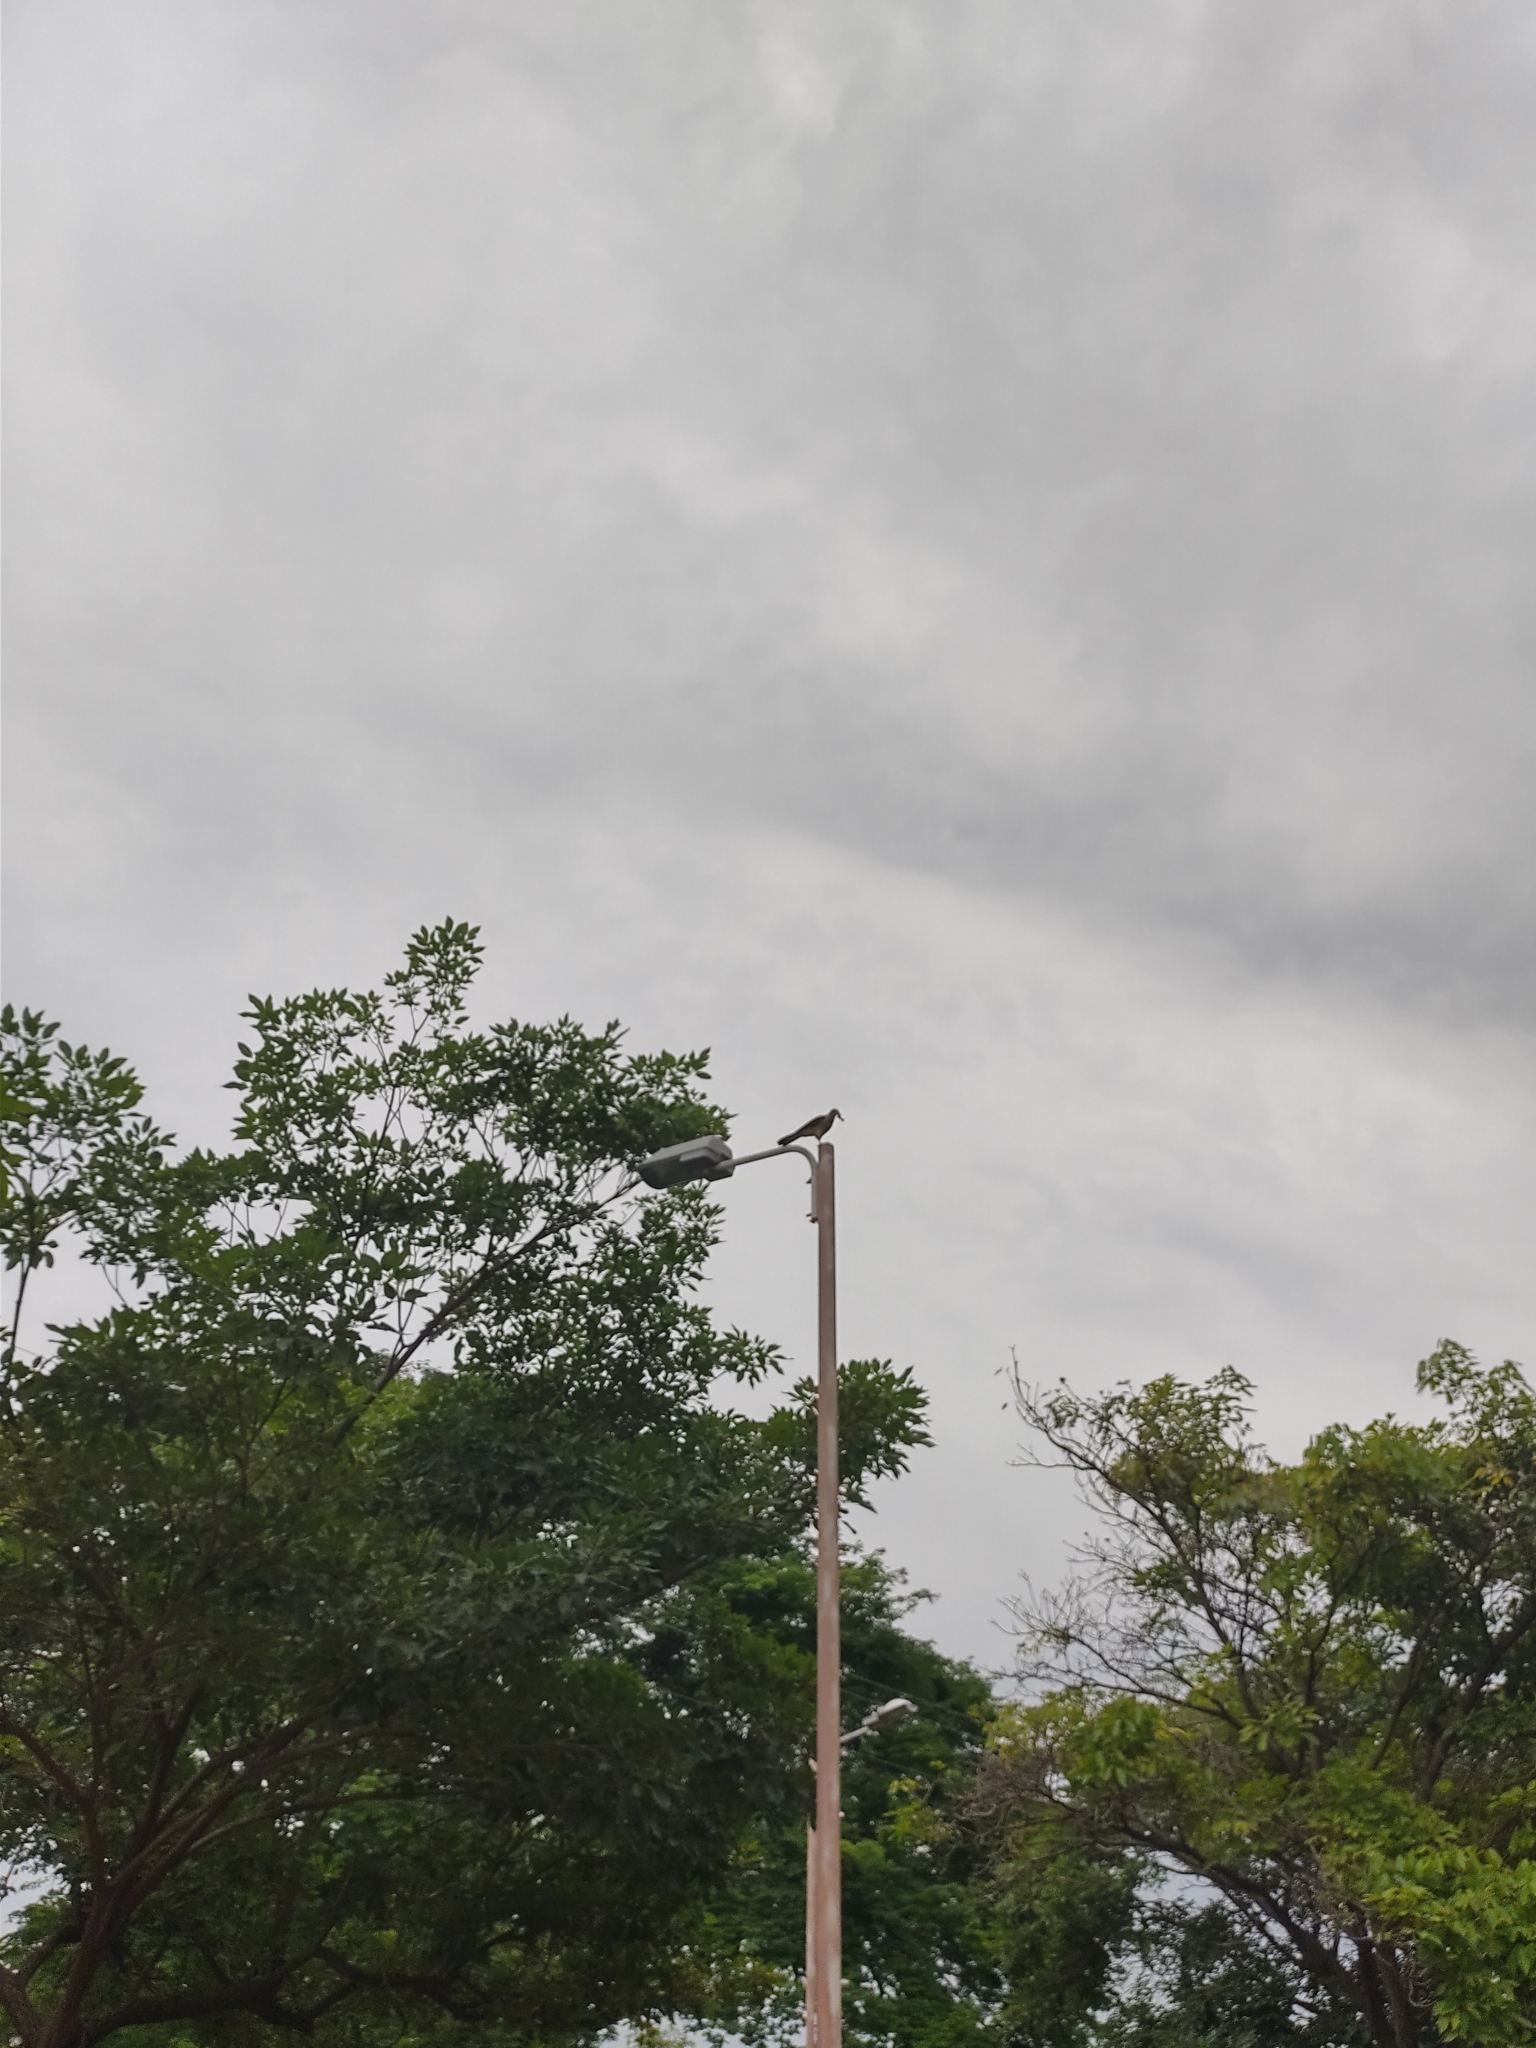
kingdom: Animalia
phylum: Chordata
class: Aves
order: Falconiformes
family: Falconidae
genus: Daptrius
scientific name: Daptrius
